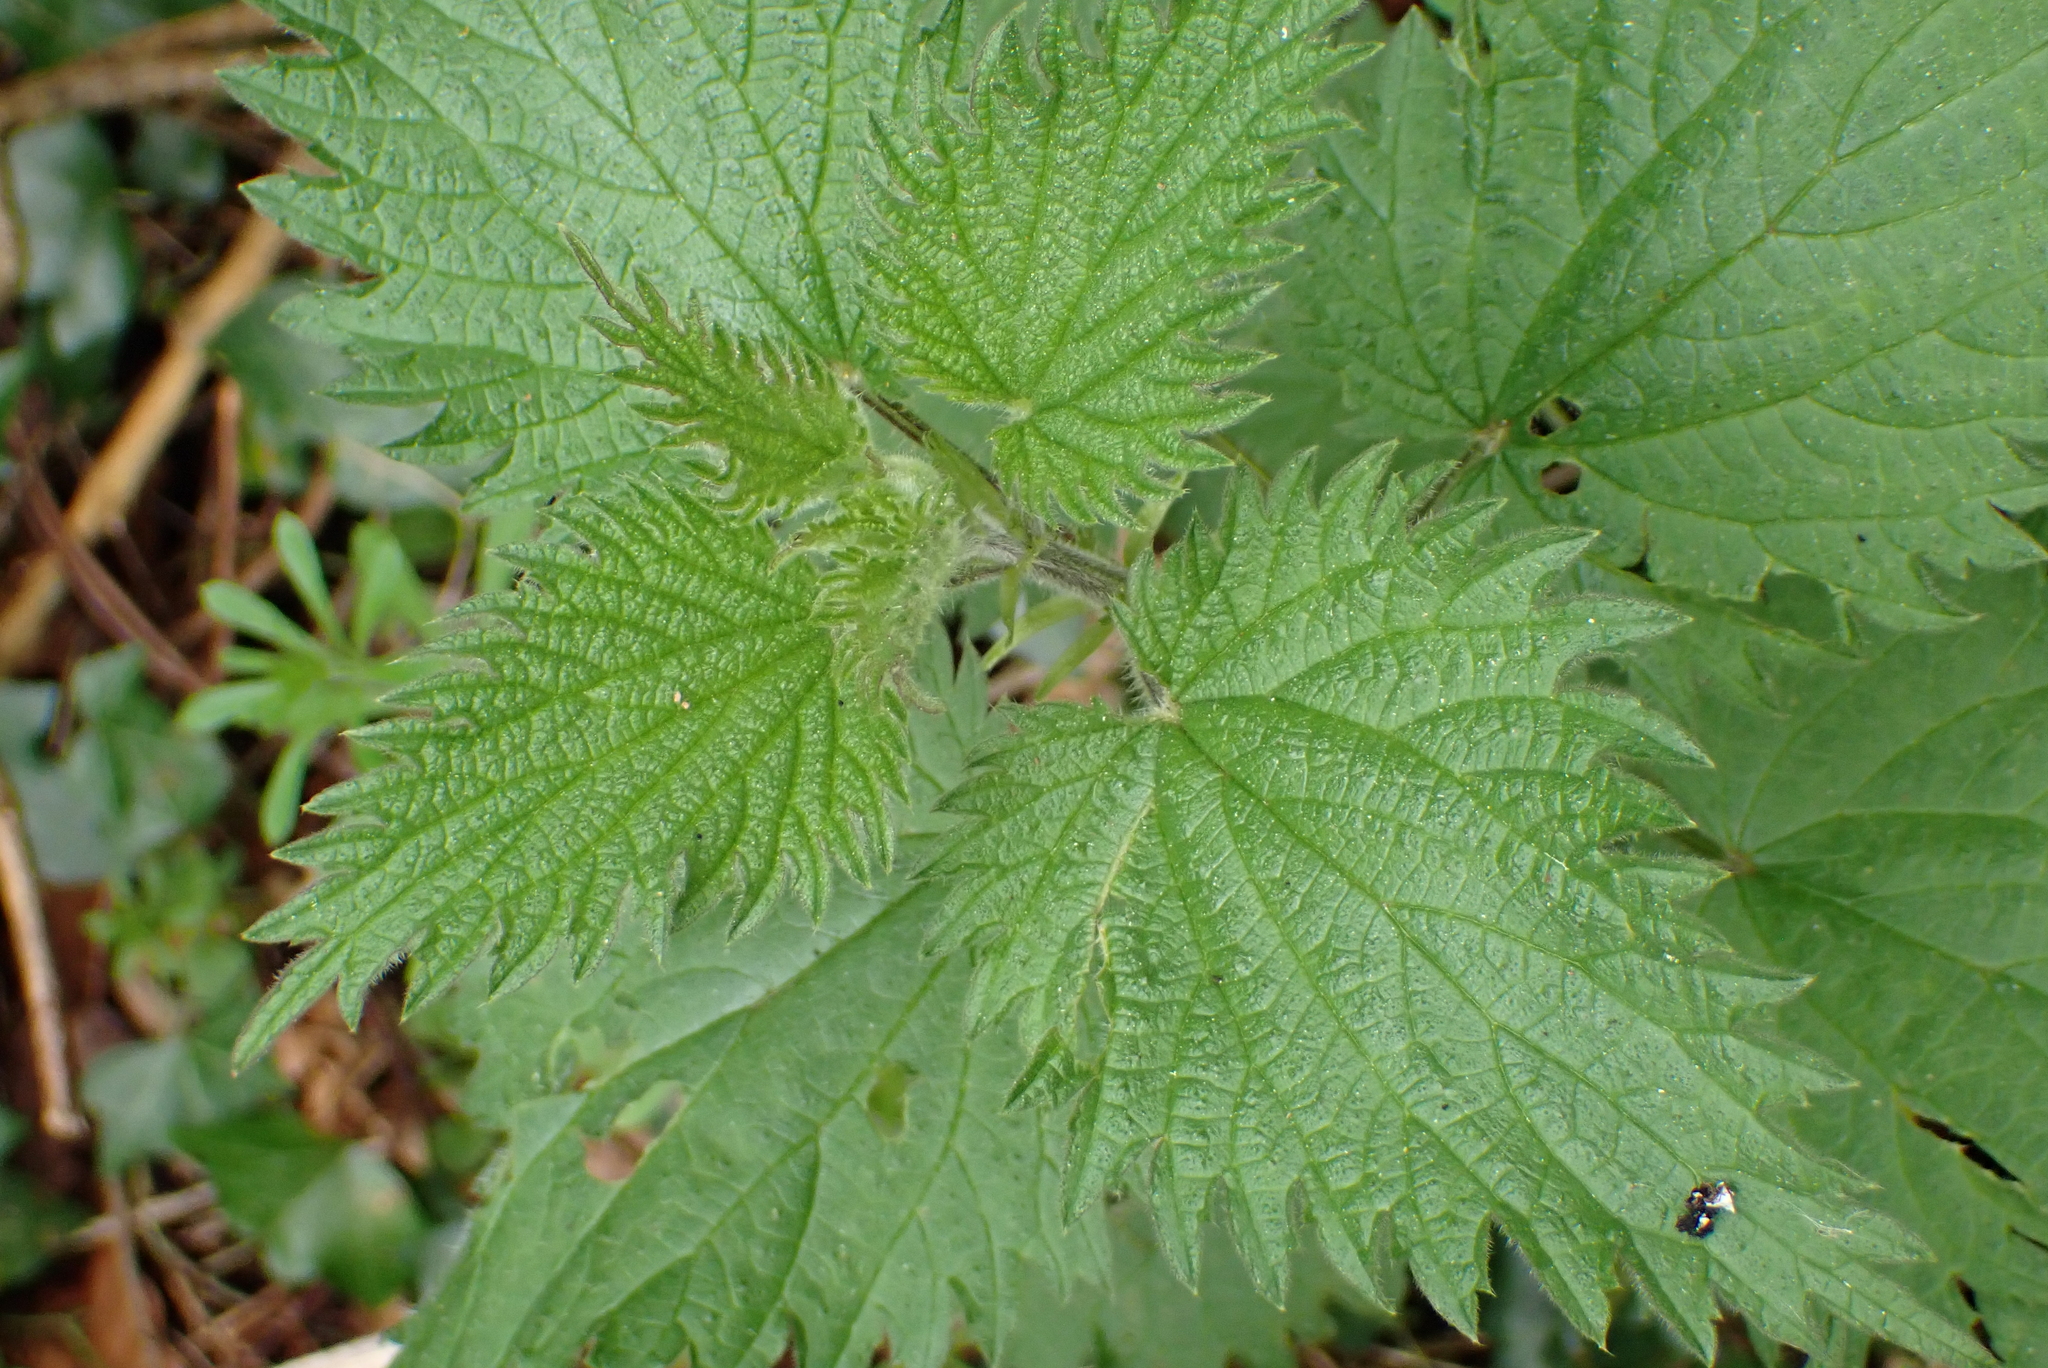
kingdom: Plantae
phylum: Tracheophyta
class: Magnoliopsida
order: Rosales
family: Urticaceae
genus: Urtica
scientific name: Urtica dioica
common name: Common nettle
